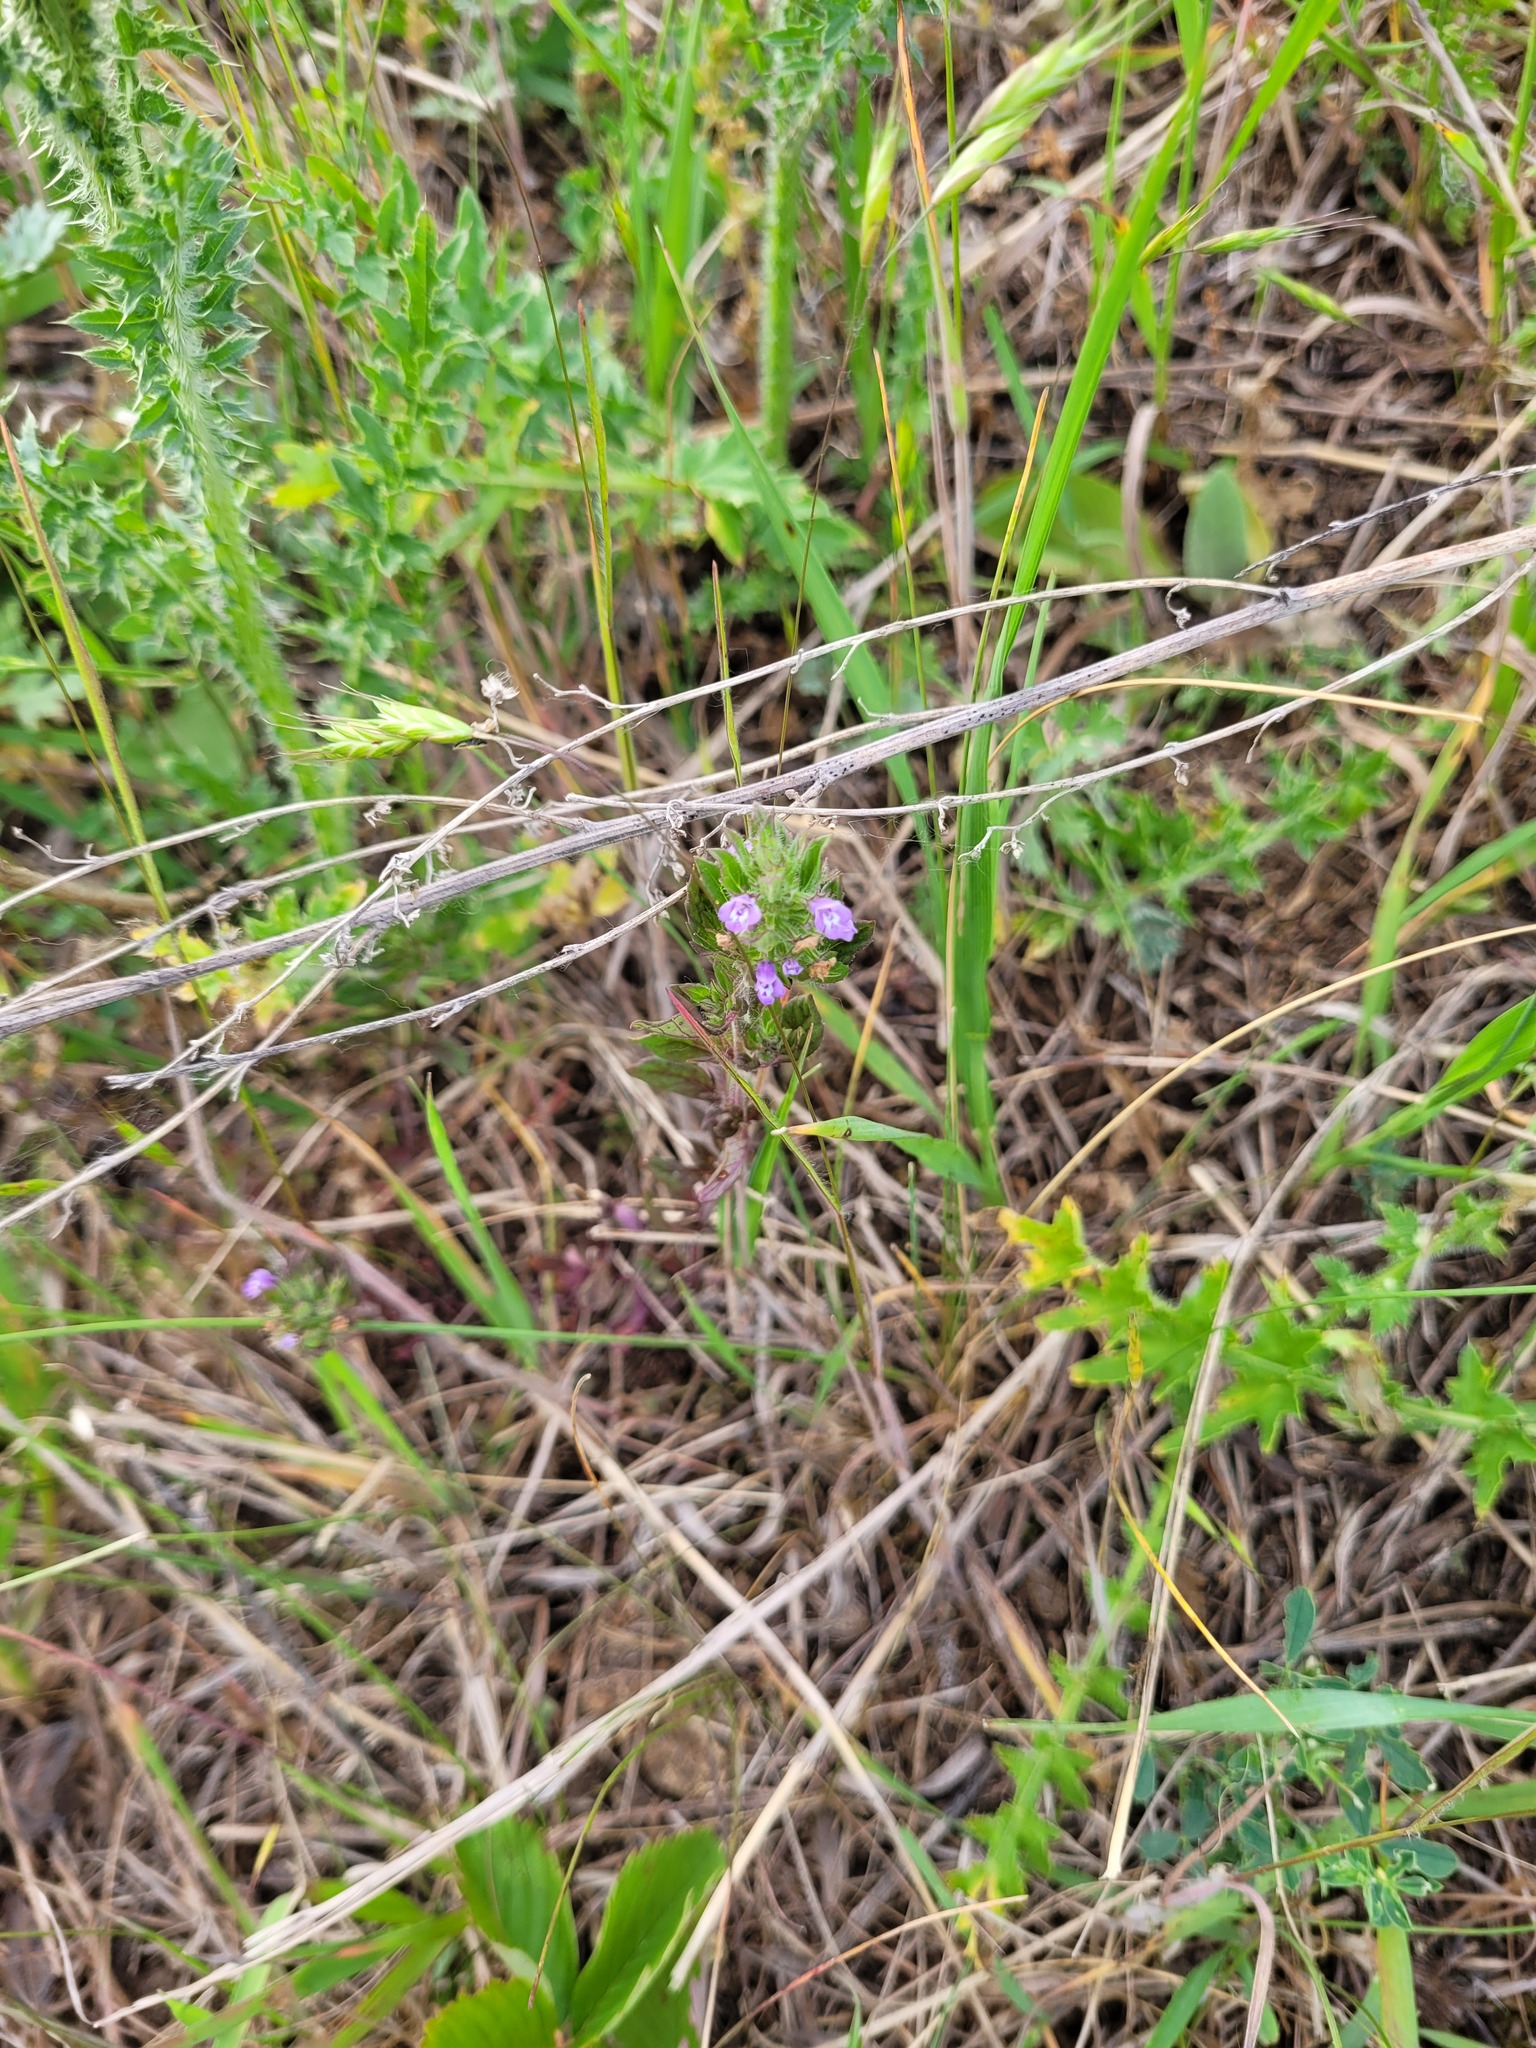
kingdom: Plantae
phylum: Tracheophyta
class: Magnoliopsida
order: Lamiales
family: Lamiaceae
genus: Clinopodium
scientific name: Clinopodium acinos
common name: Basil thyme
